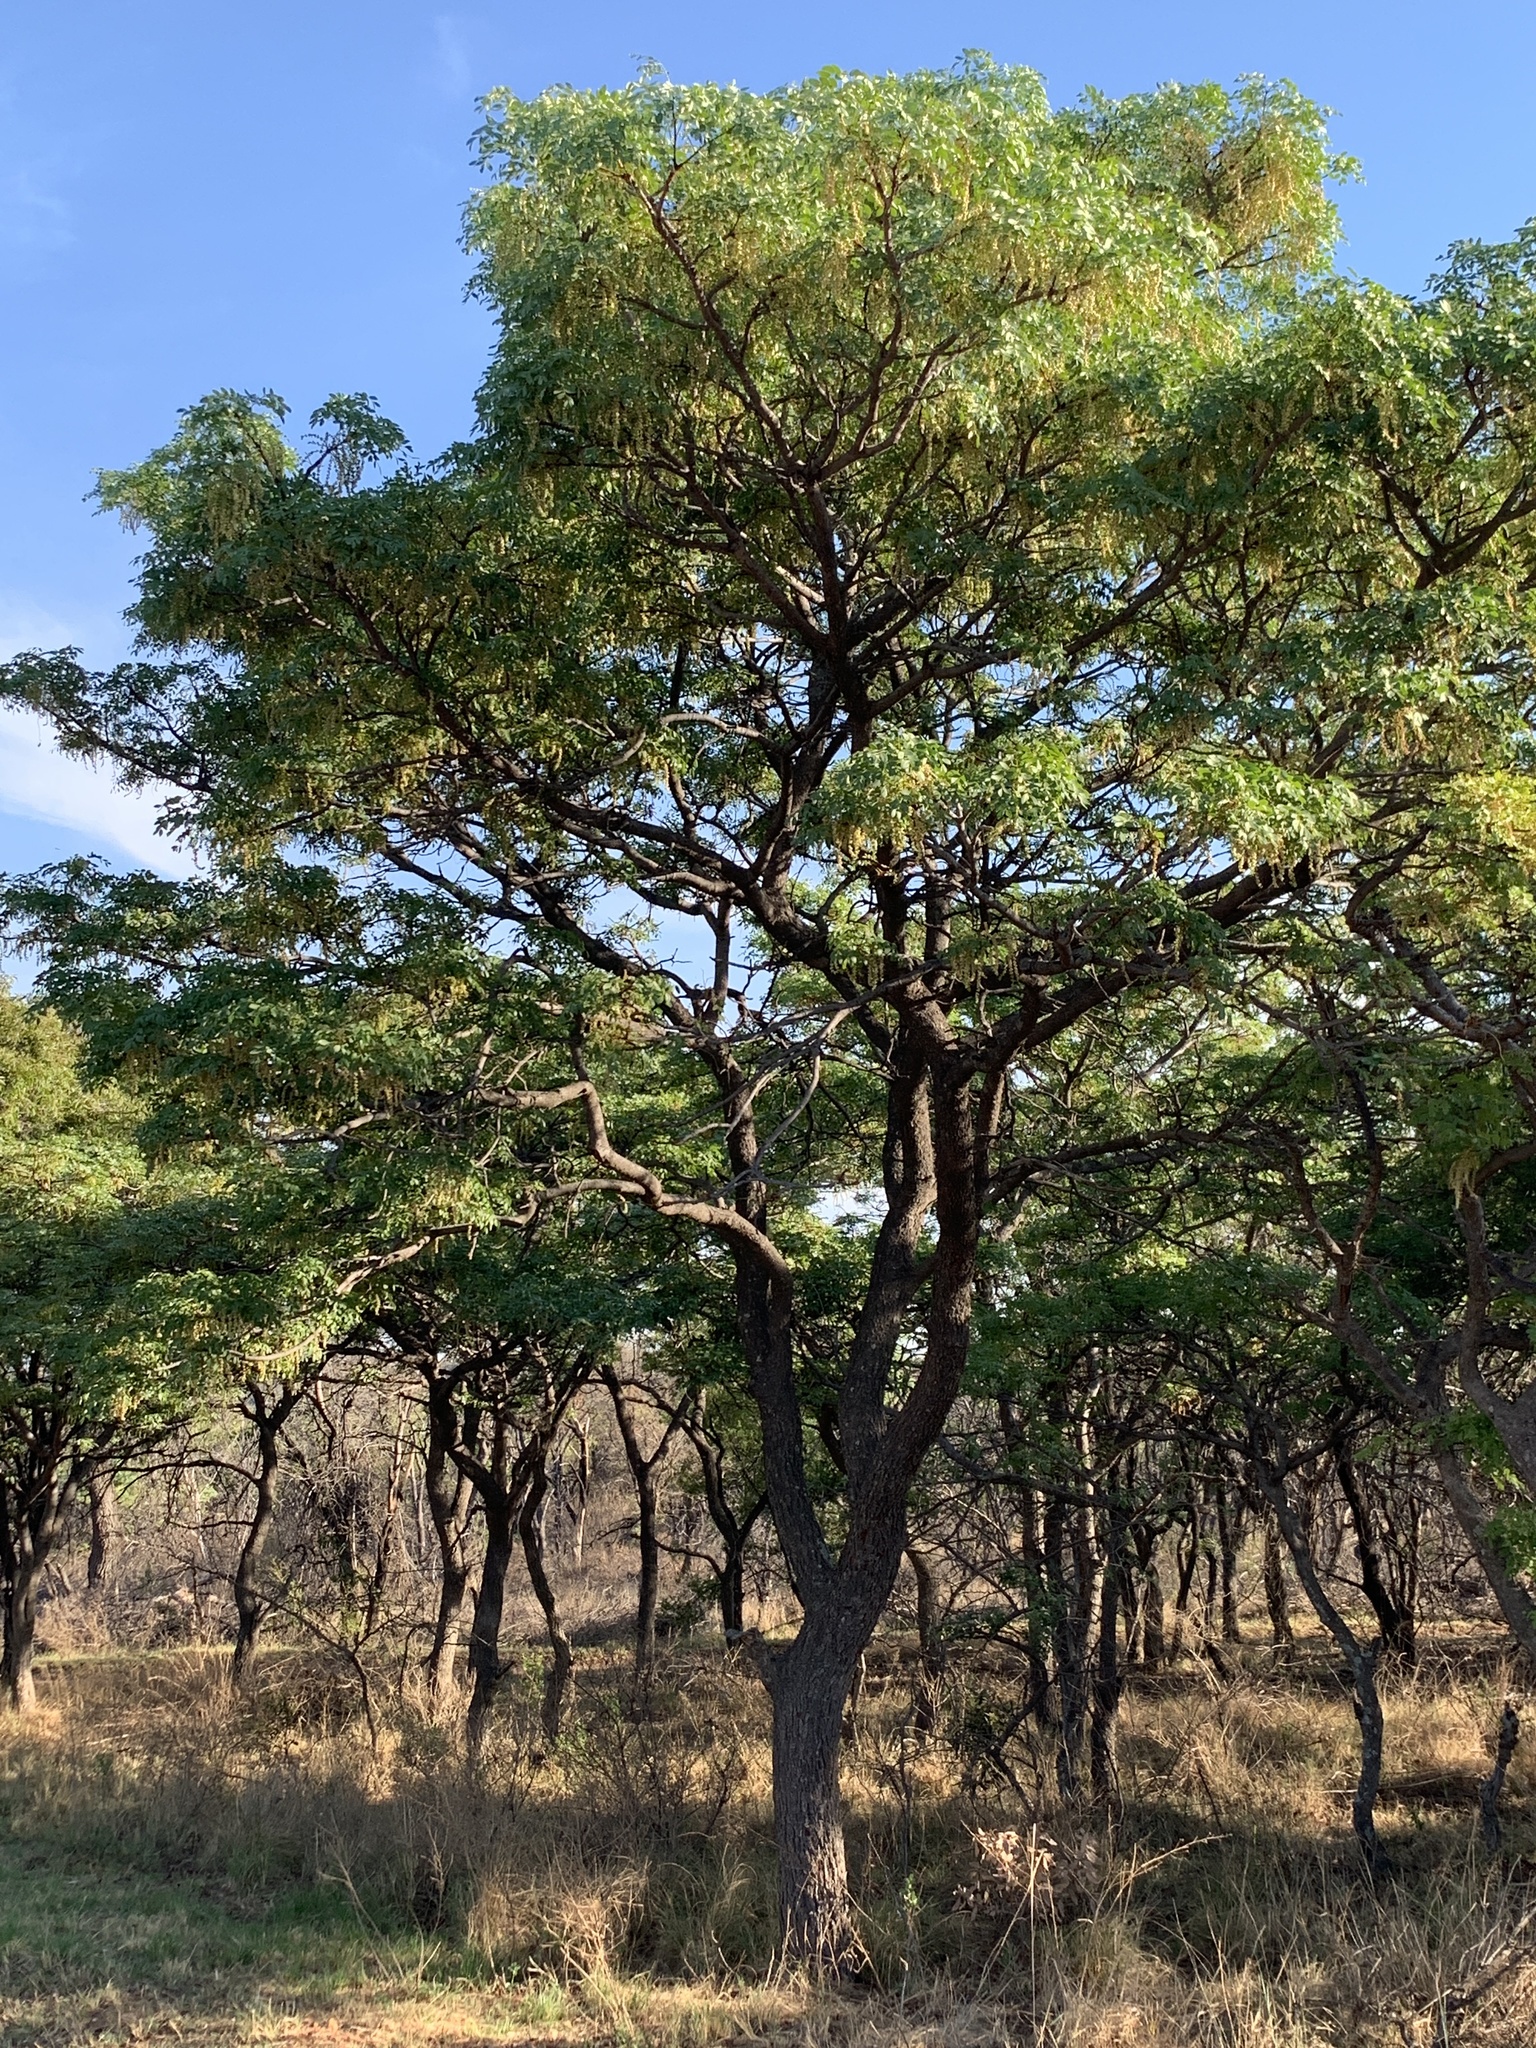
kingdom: Plantae
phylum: Tracheophyta
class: Magnoliopsida
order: Fabales
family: Fabaceae
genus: Burkea
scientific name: Burkea africana
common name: Mkalati tree
